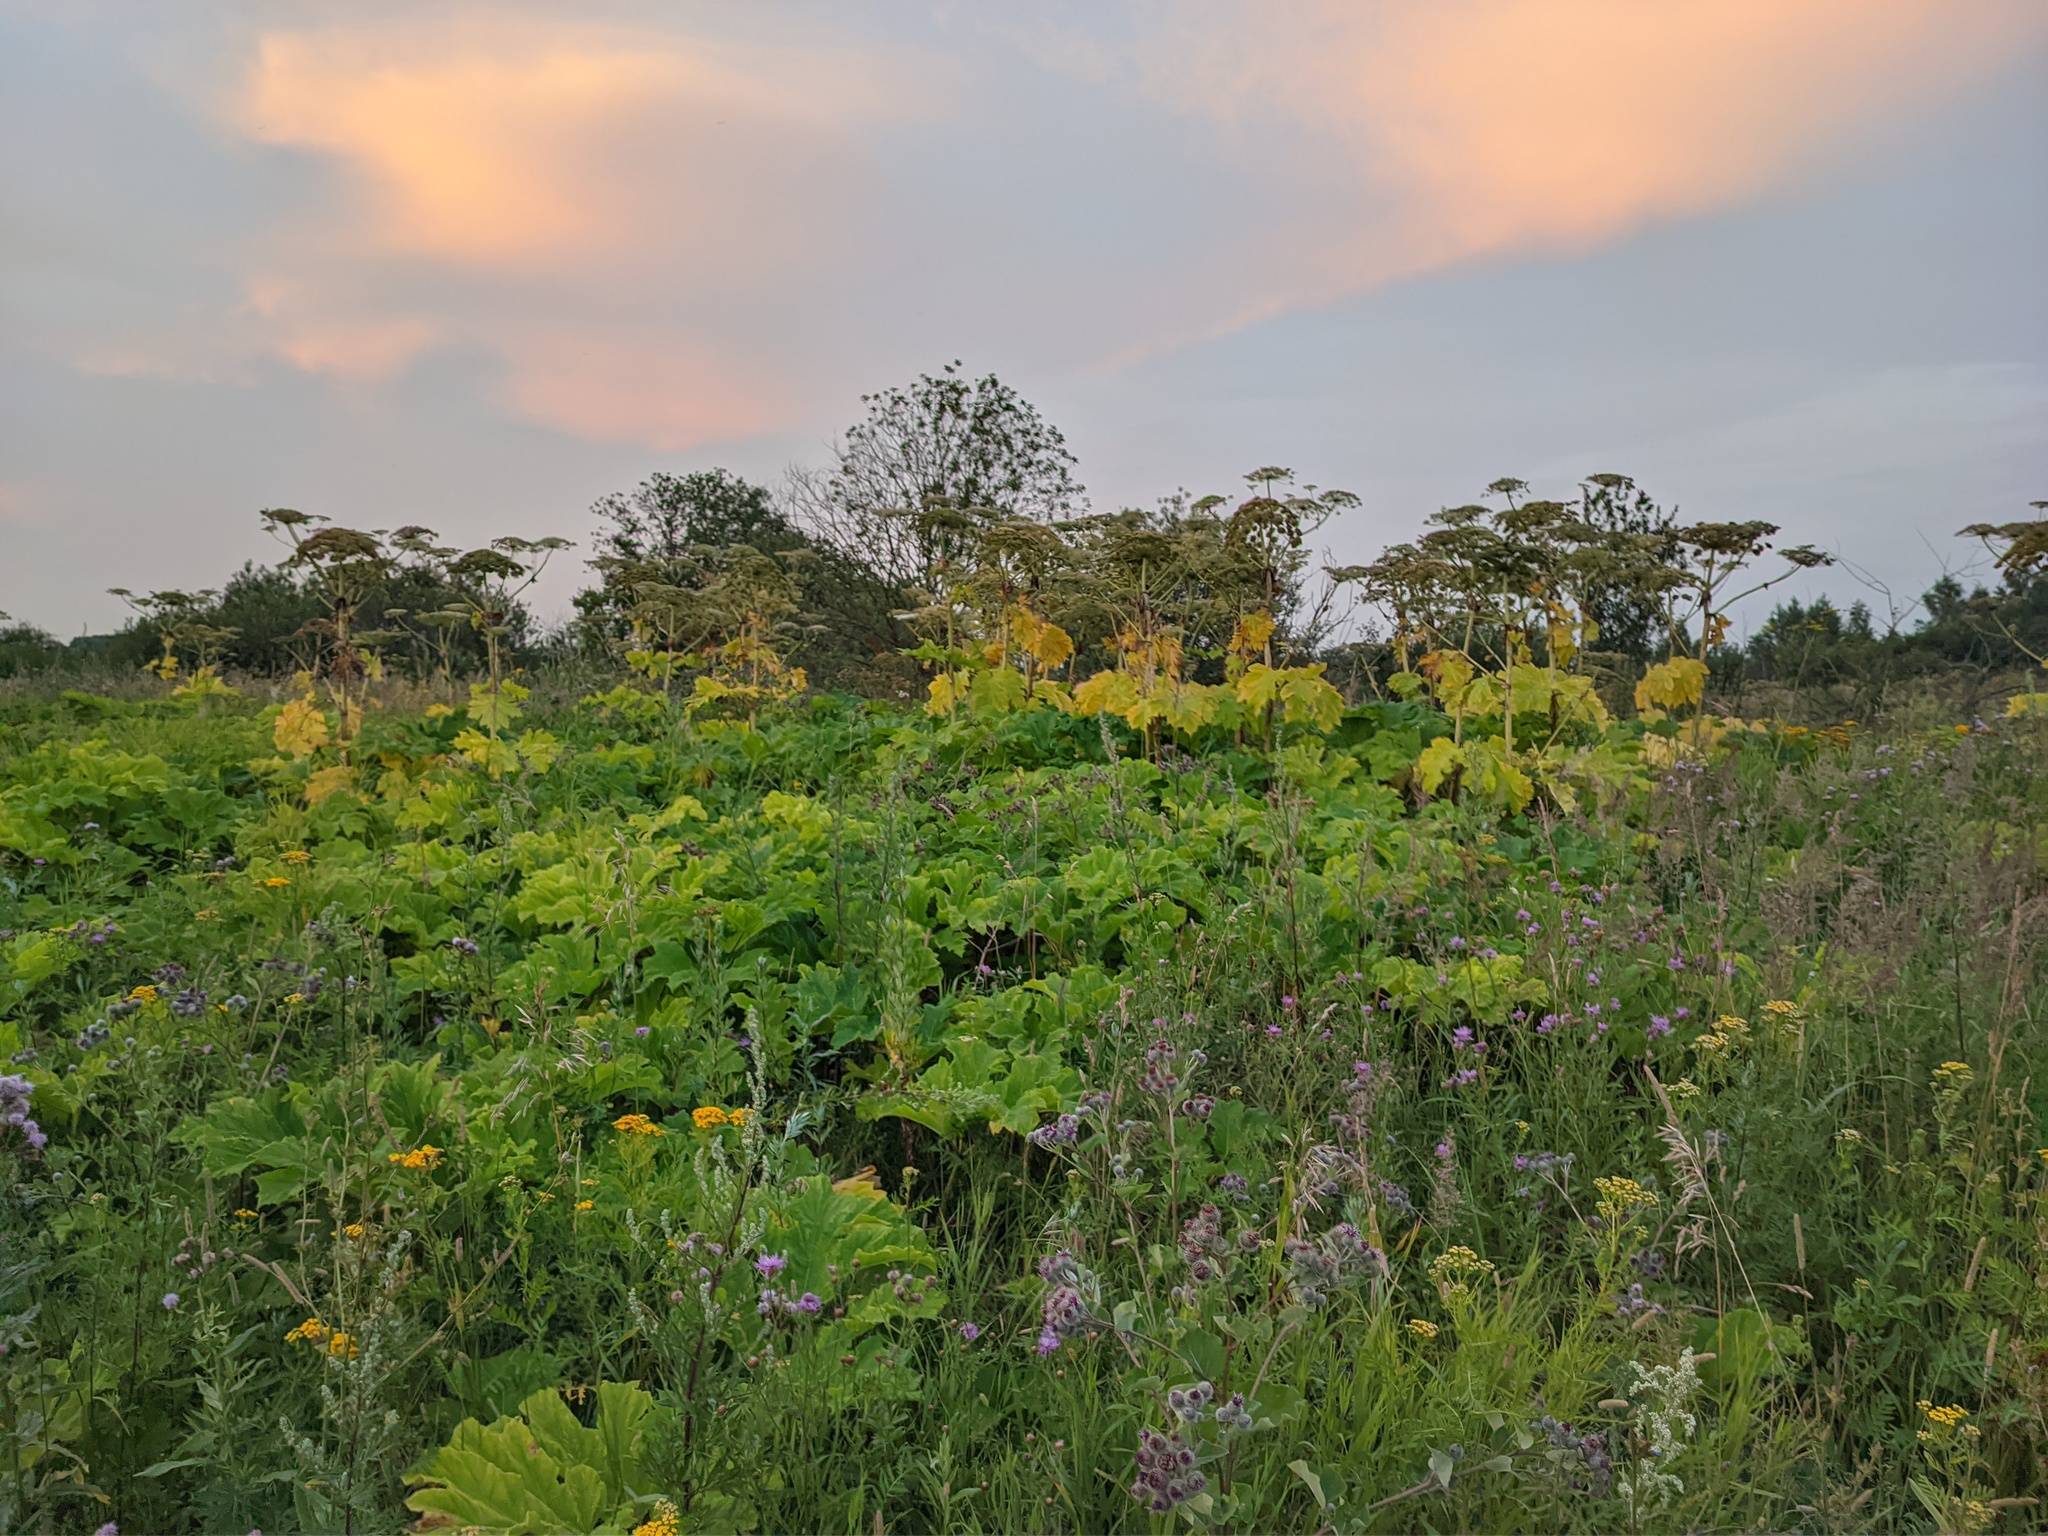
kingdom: Plantae
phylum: Tracheophyta
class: Magnoliopsida
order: Apiales
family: Apiaceae
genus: Heracleum
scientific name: Heracleum sosnowskyi
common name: Sosnowsky's hogweed
